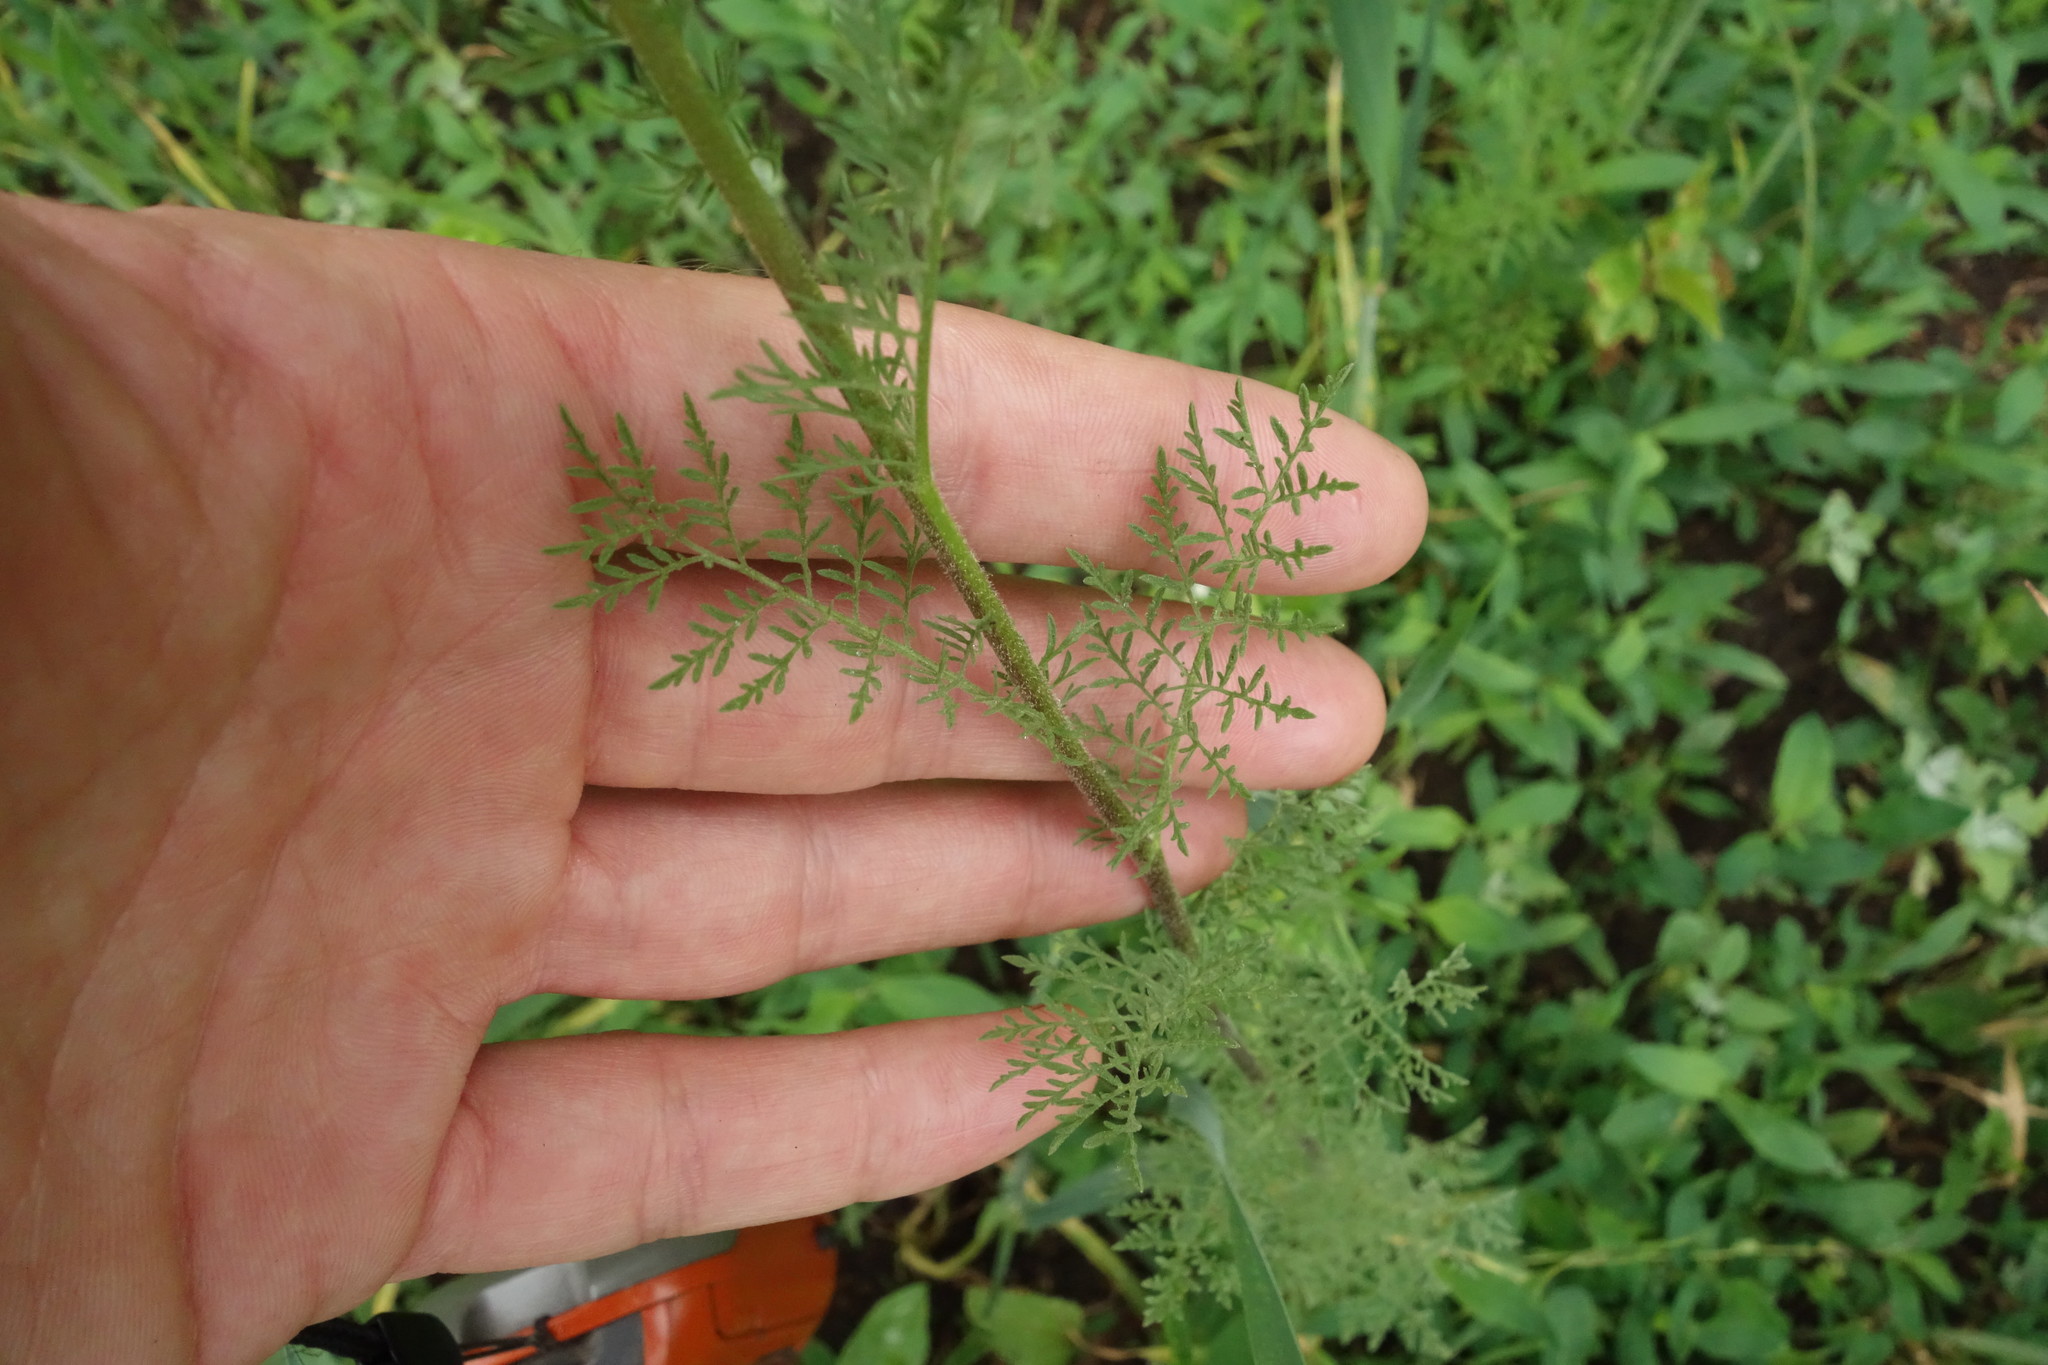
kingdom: Plantae
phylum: Tracheophyta
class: Magnoliopsida
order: Brassicales
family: Brassicaceae
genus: Descurainia
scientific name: Descurainia sophia
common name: Flixweed
